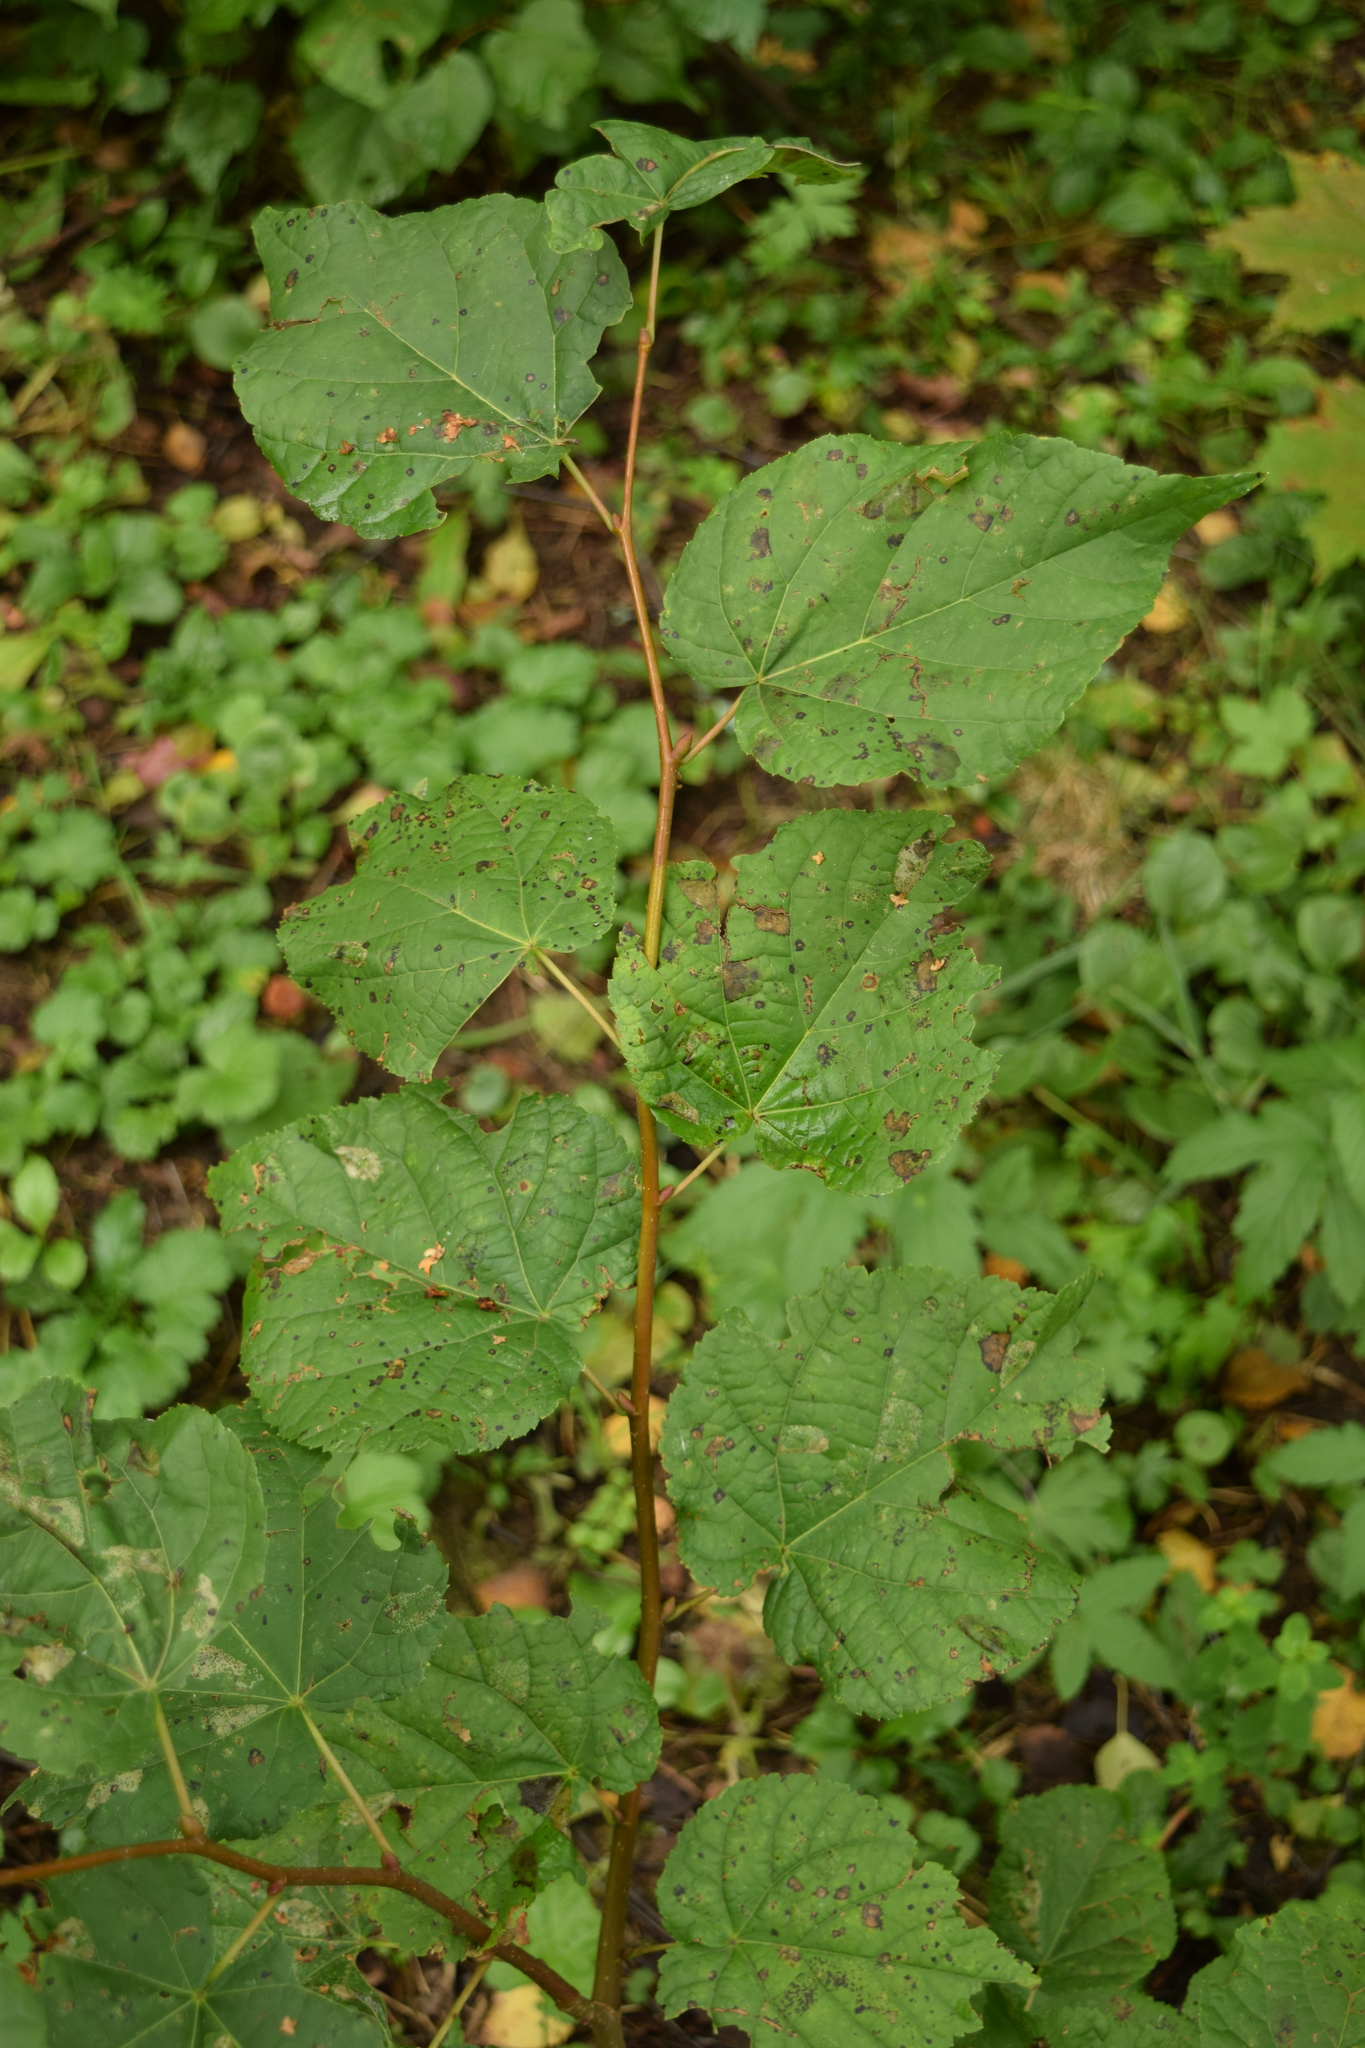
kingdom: Plantae
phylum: Tracheophyta
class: Magnoliopsida
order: Malvales
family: Malvaceae
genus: Tilia
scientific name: Tilia cordata
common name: Small-leaved lime
